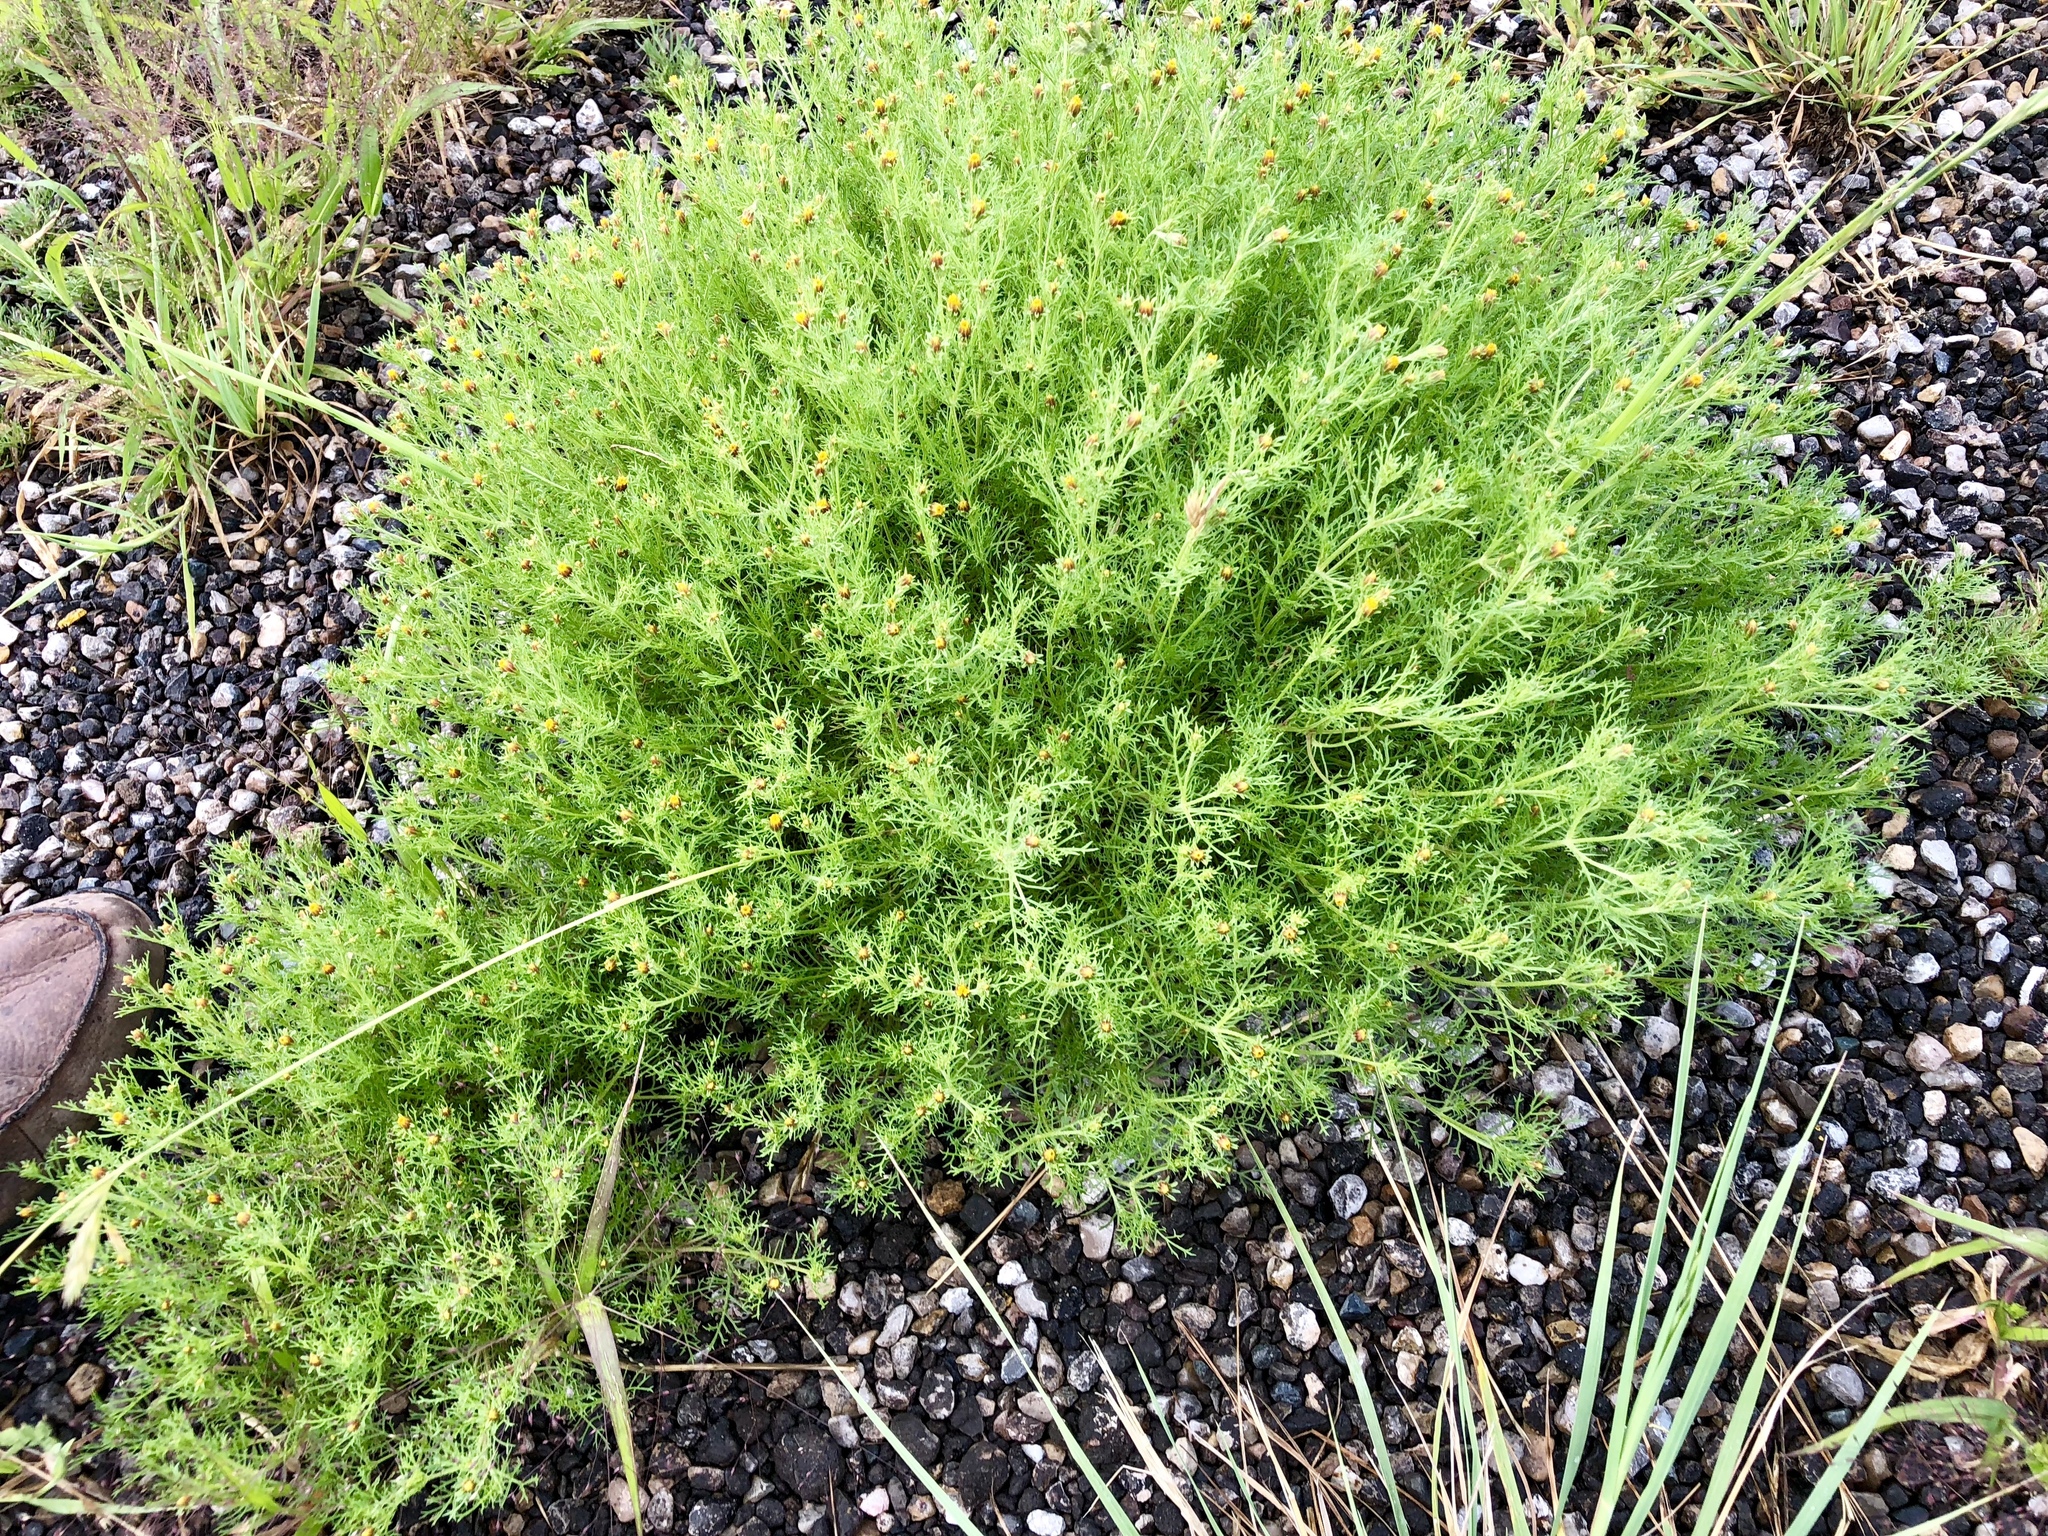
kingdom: Plantae
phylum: Tracheophyta
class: Magnoliopsida
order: Asterales
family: Asteraceae
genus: Dyssodia
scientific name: Dyssodia papposa
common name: Dogweed
